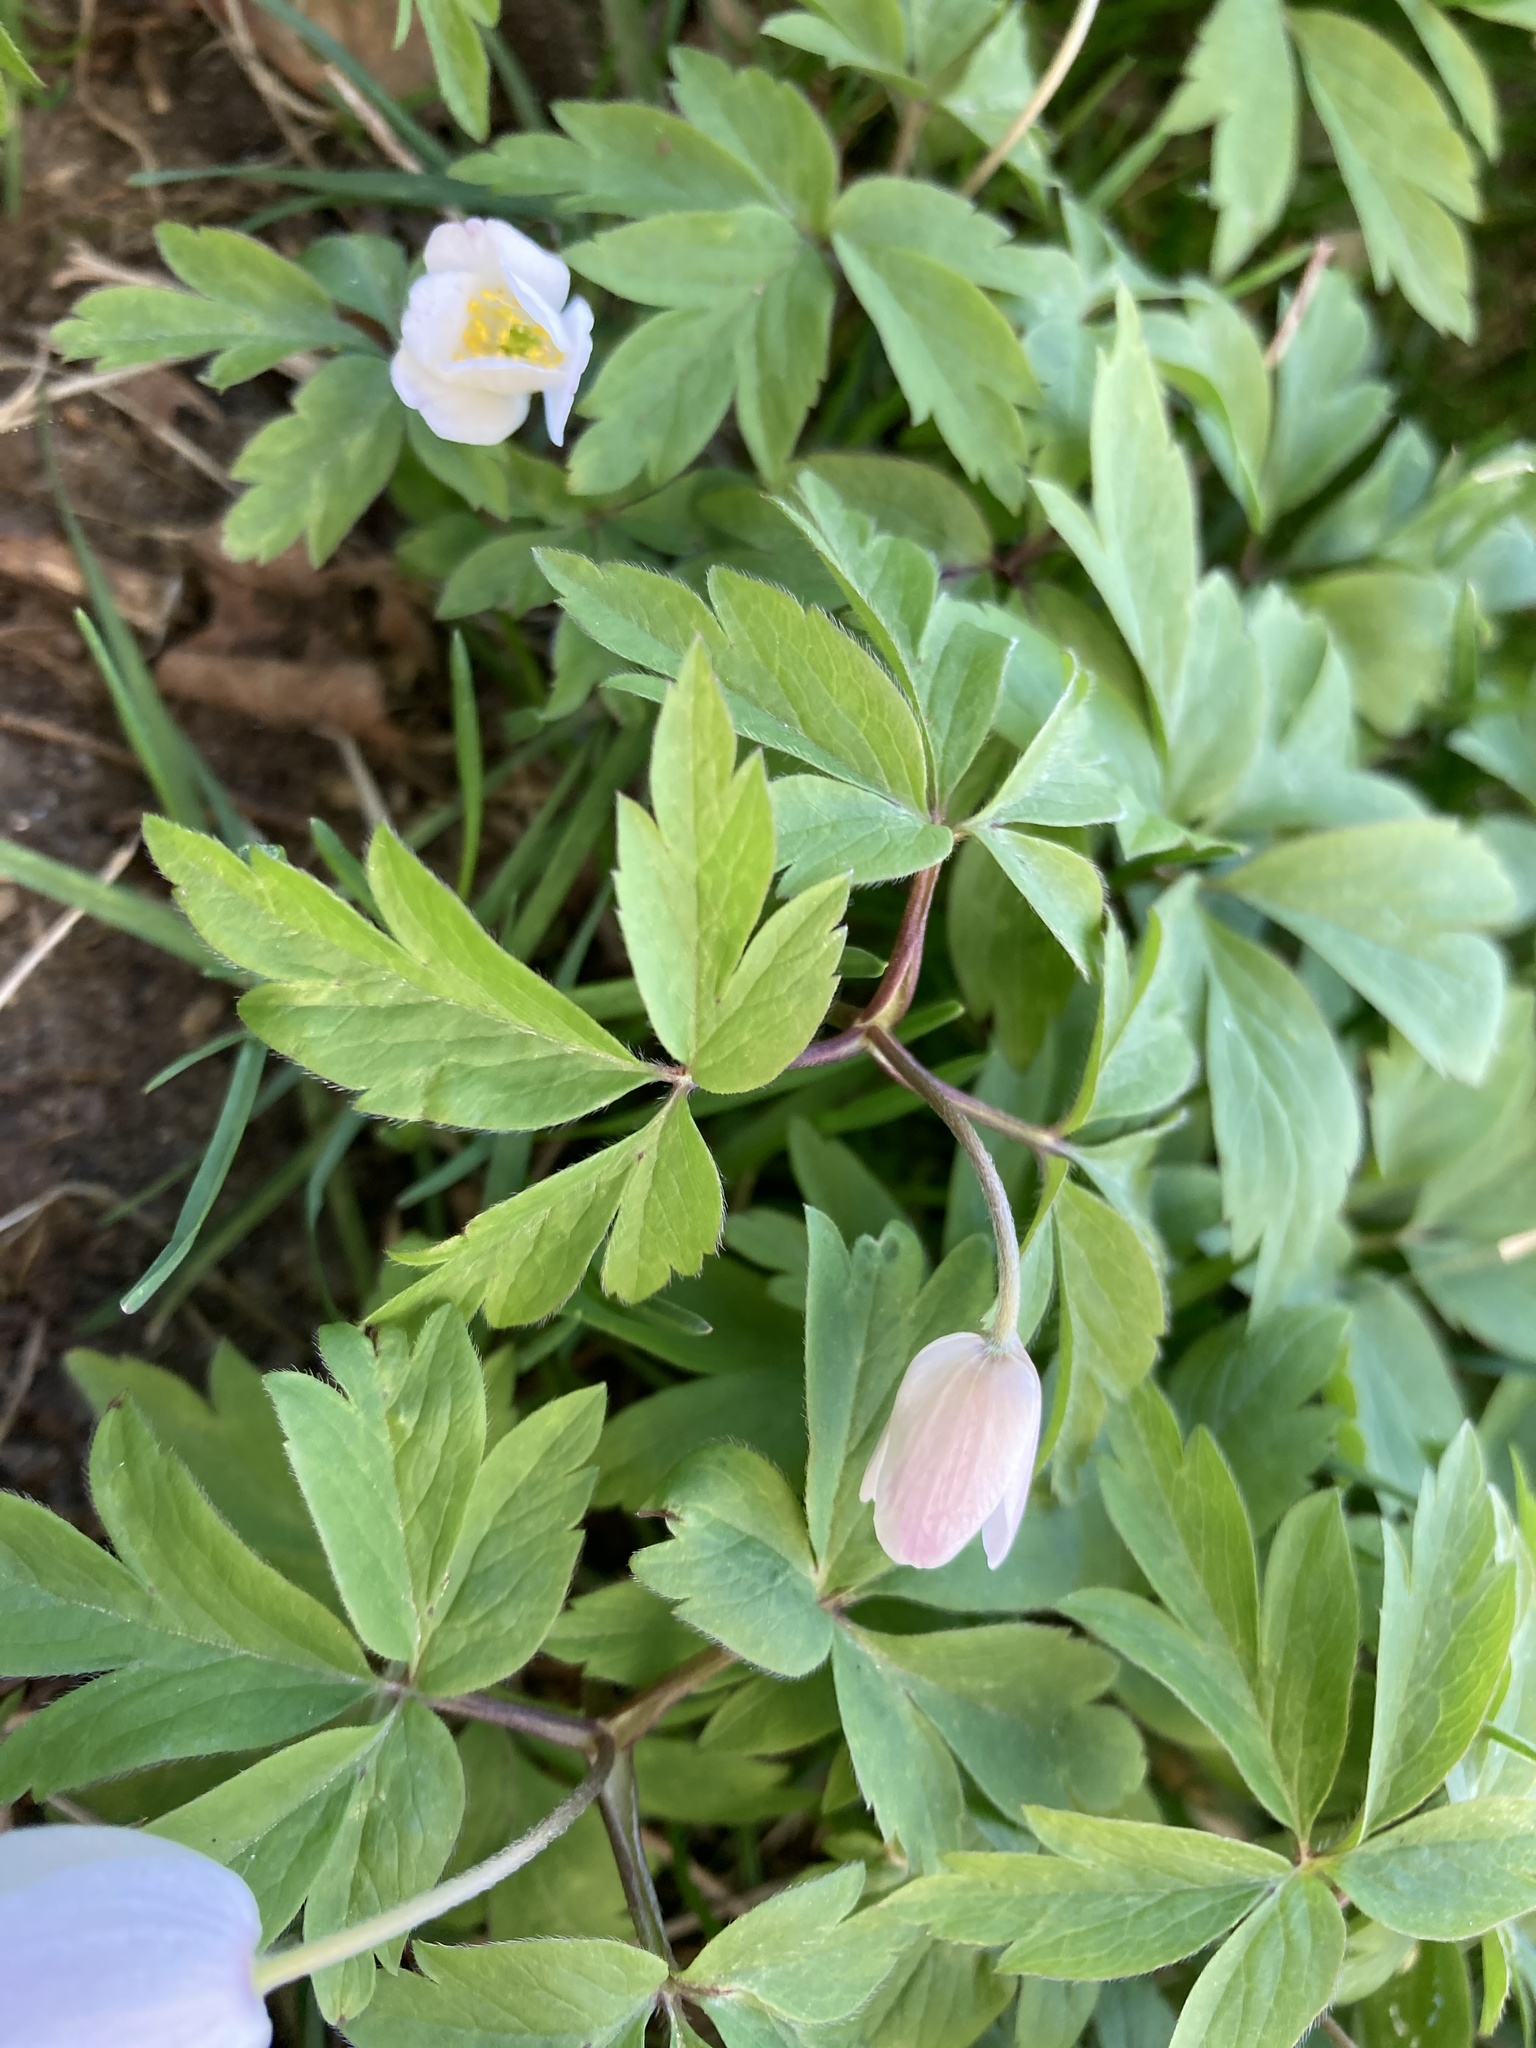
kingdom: Plantae
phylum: Tracheophyta
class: Magnoliopsida
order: Ranunculales
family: Ranunculaceae
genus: Anemone
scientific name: Anemone nemorosa
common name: Wood anemone
